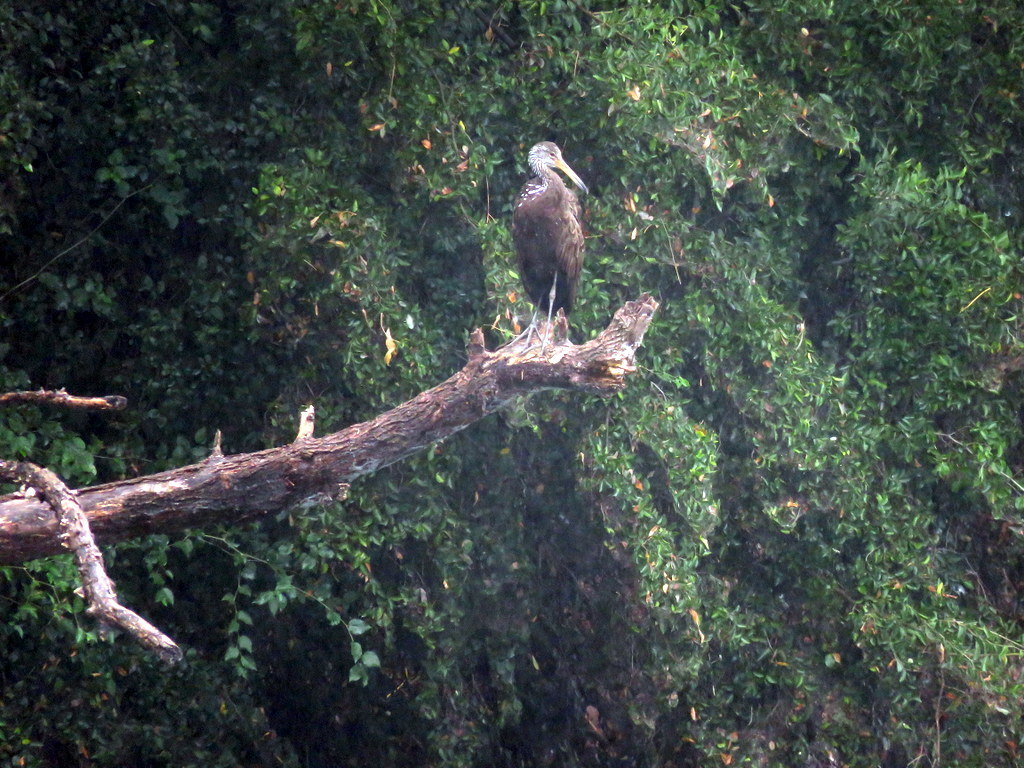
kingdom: Animalia
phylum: Chordata
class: Aves
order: Gruiformes
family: Aramidae
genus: Aramus
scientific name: Aramus guarauna
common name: Limpkin
